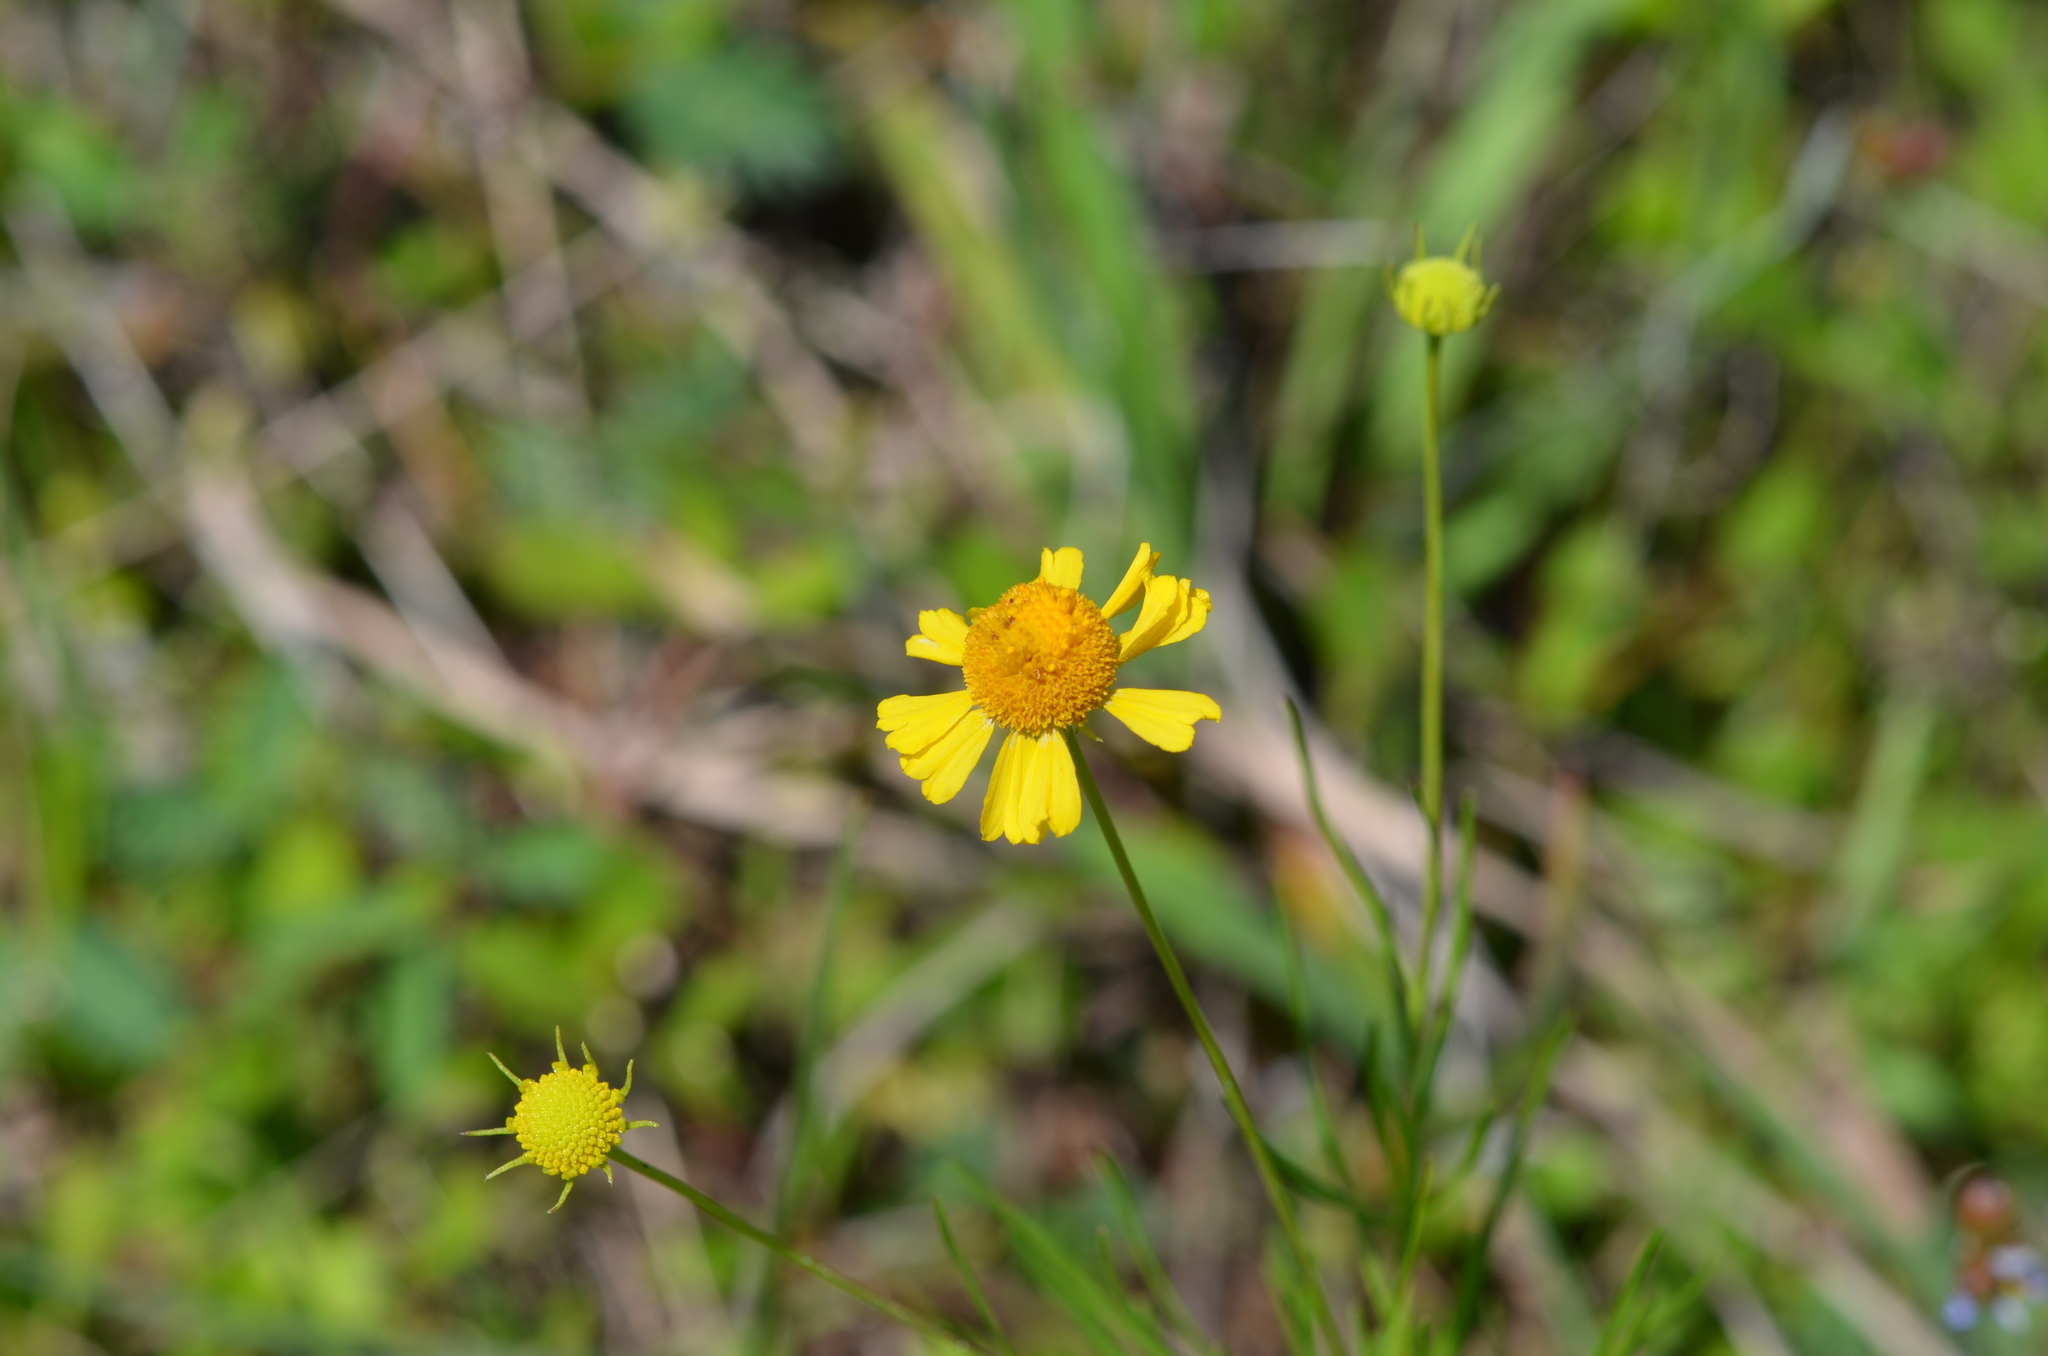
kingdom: Plantae
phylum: Tracheophyta
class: Magnoliopsida
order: Asterales
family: Asteraceae
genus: Helenium
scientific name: Helenium amarum
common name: Bitter sneezeweed
